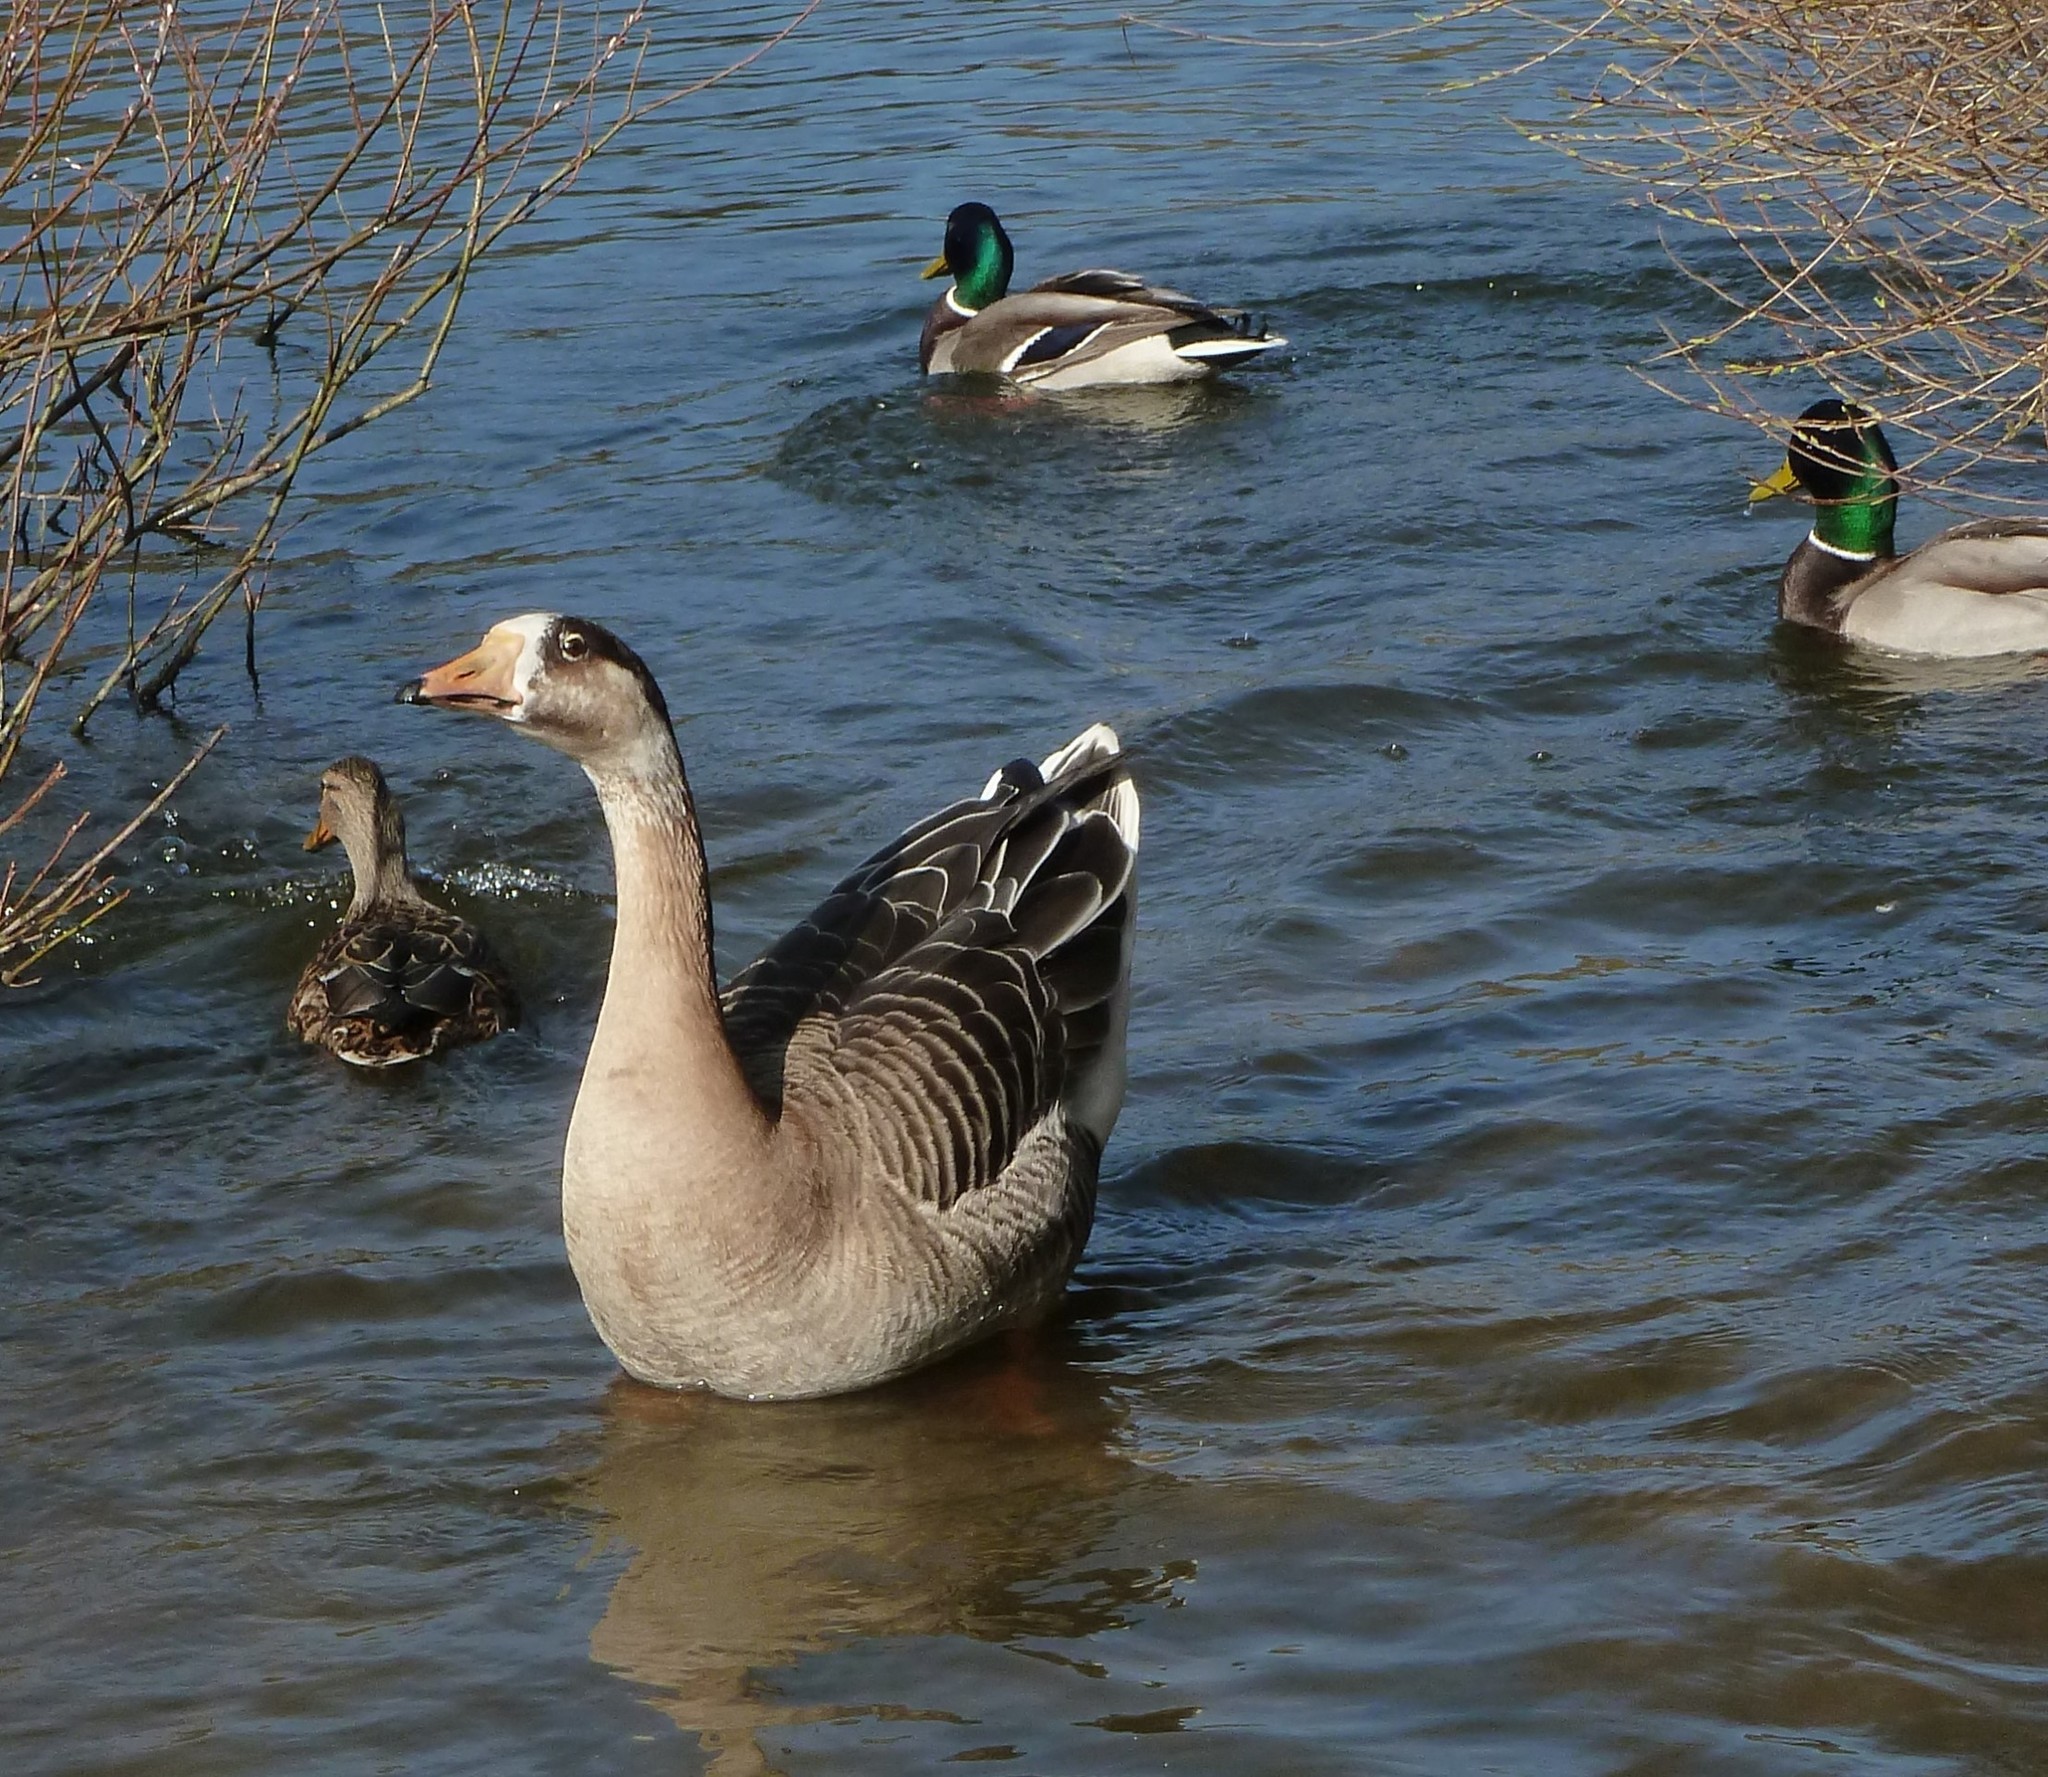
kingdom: Animalia
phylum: Chordata
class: Aves
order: Anseriformes
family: Anatidae
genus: Anser
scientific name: Anser
